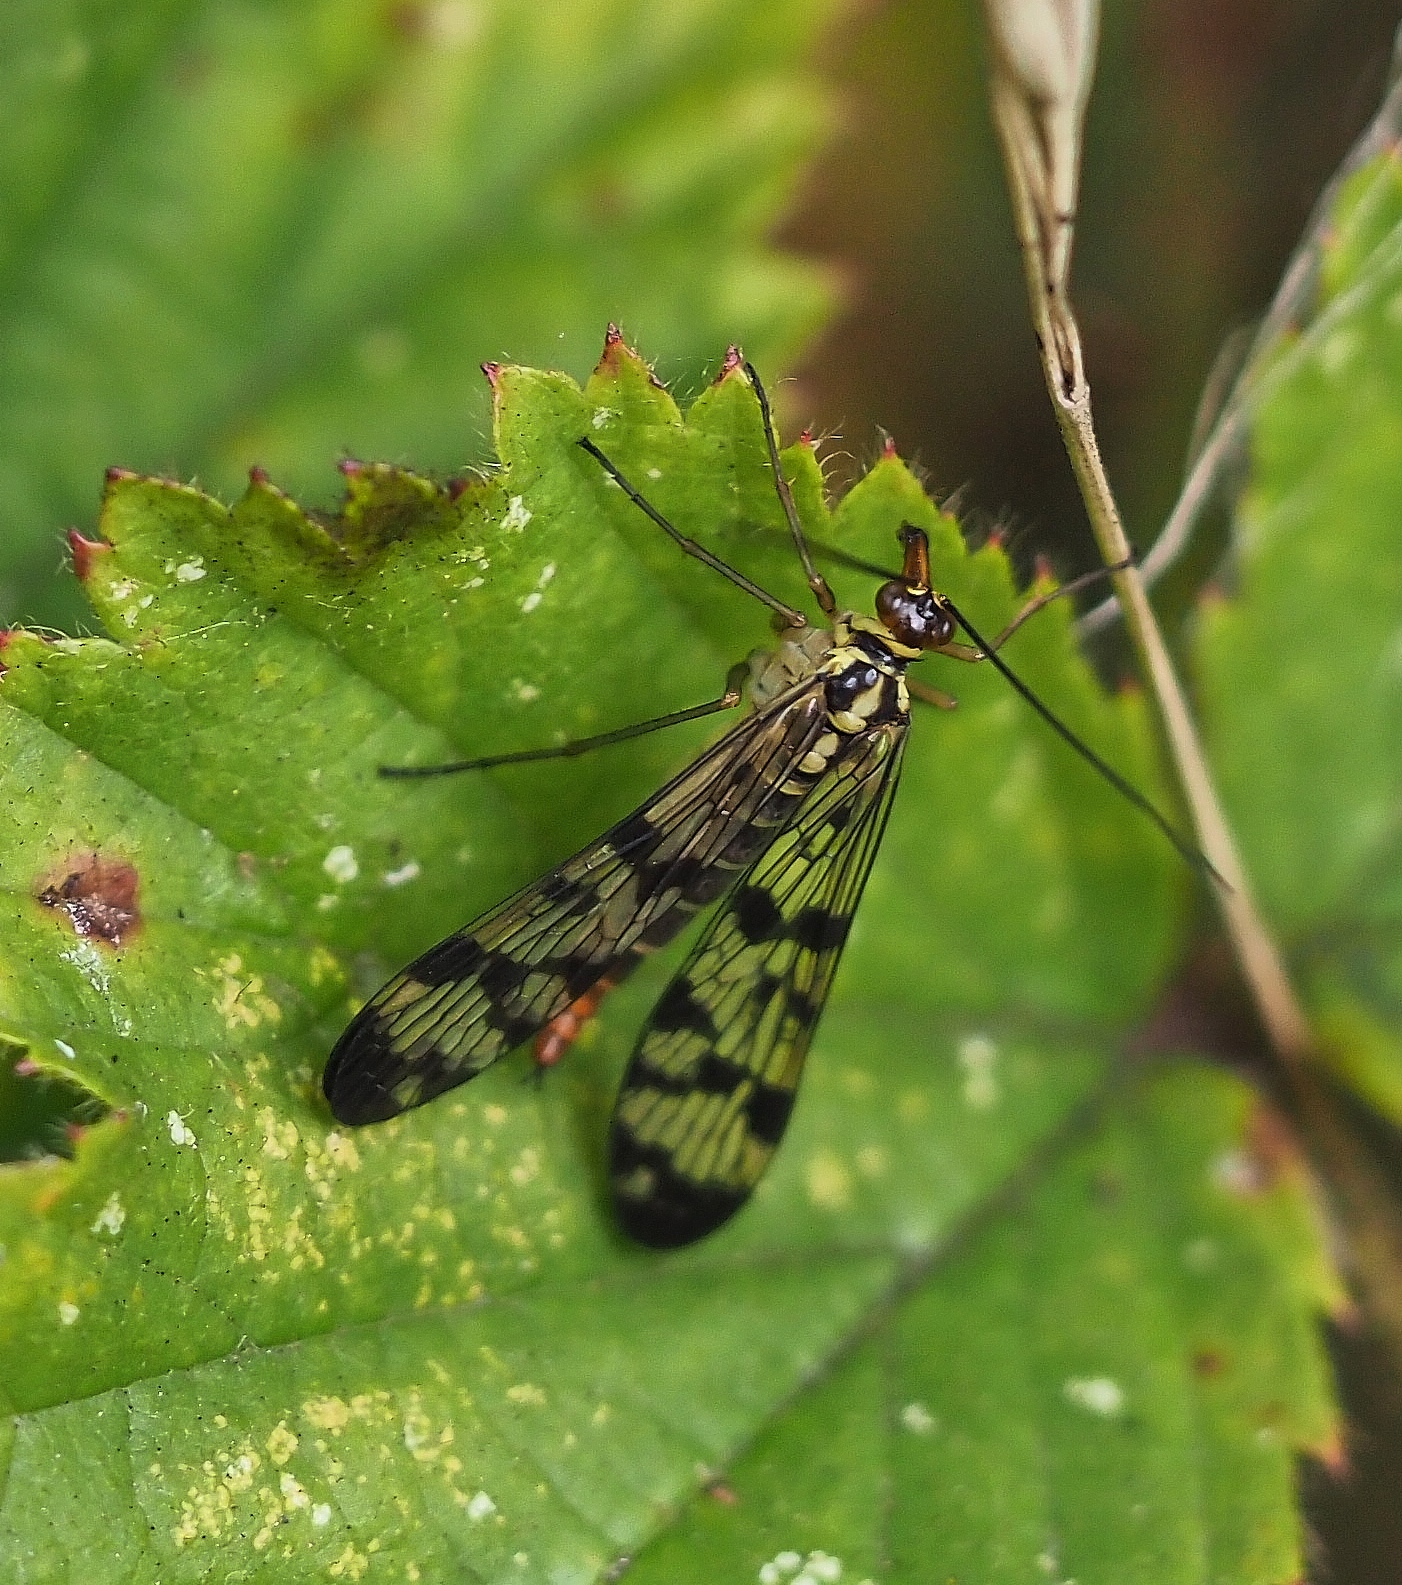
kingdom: Animalia
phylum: Arthropoda
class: Insecta
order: Mecoptera
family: Panorpidae
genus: Panorpa
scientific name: Panorpa communis
